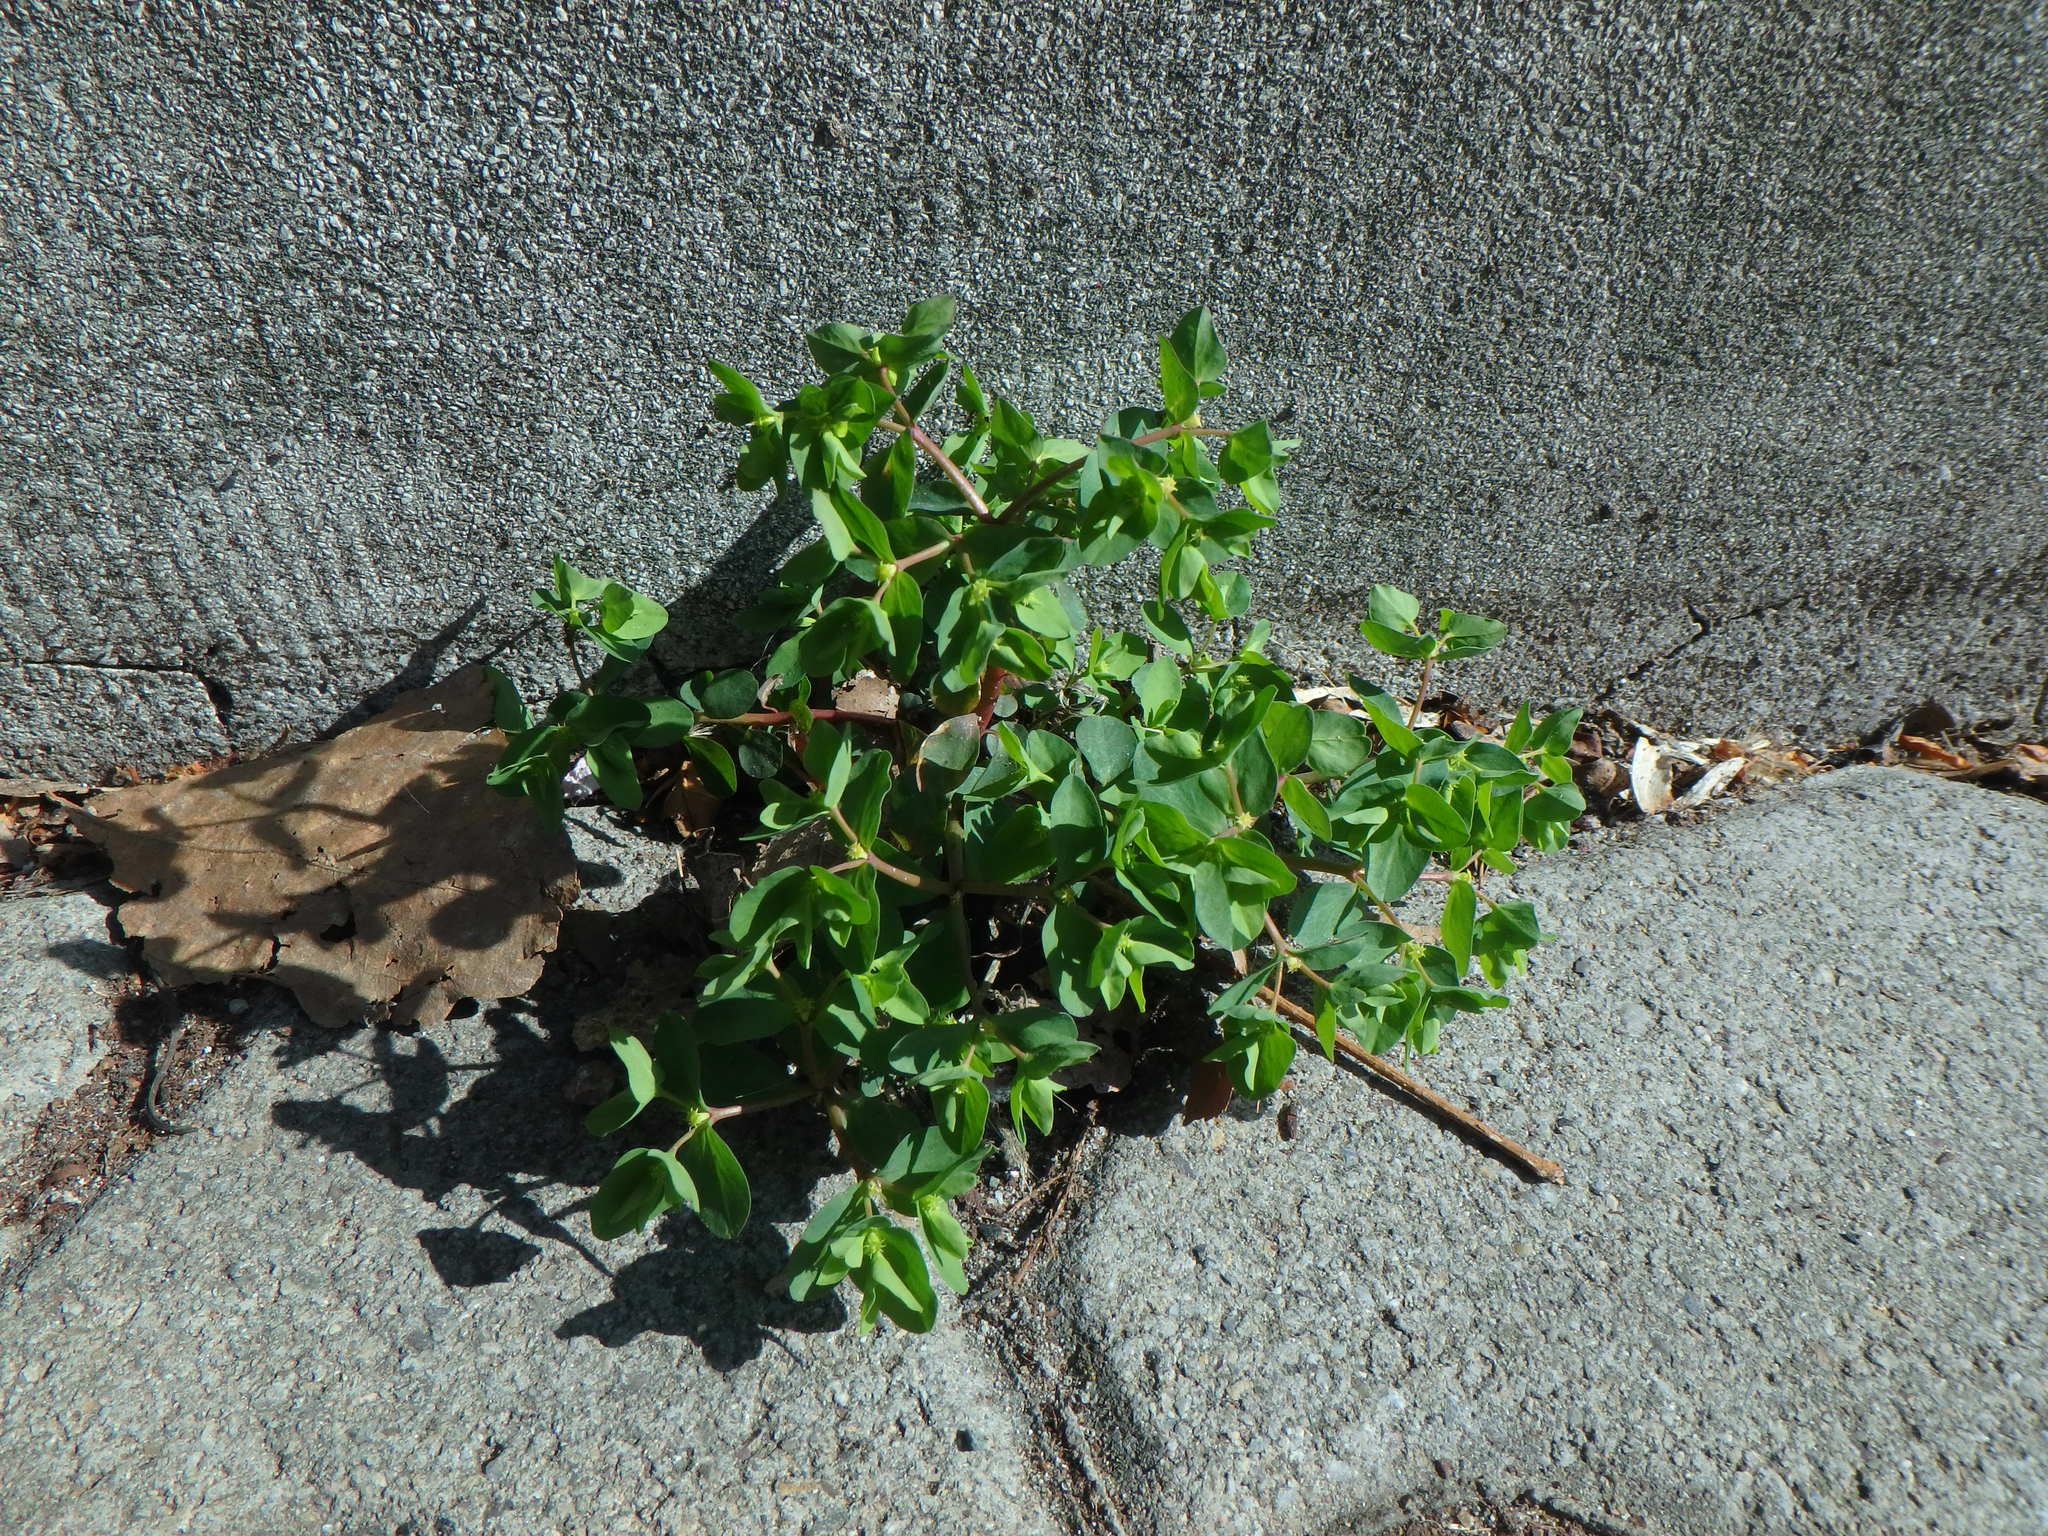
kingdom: Plantae
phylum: Tracheophyta
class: Magnoliopsida
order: Malpighiales
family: Euphorbiaceae
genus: Euphorbia
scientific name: Euphorbia peplus
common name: Petty spurge
